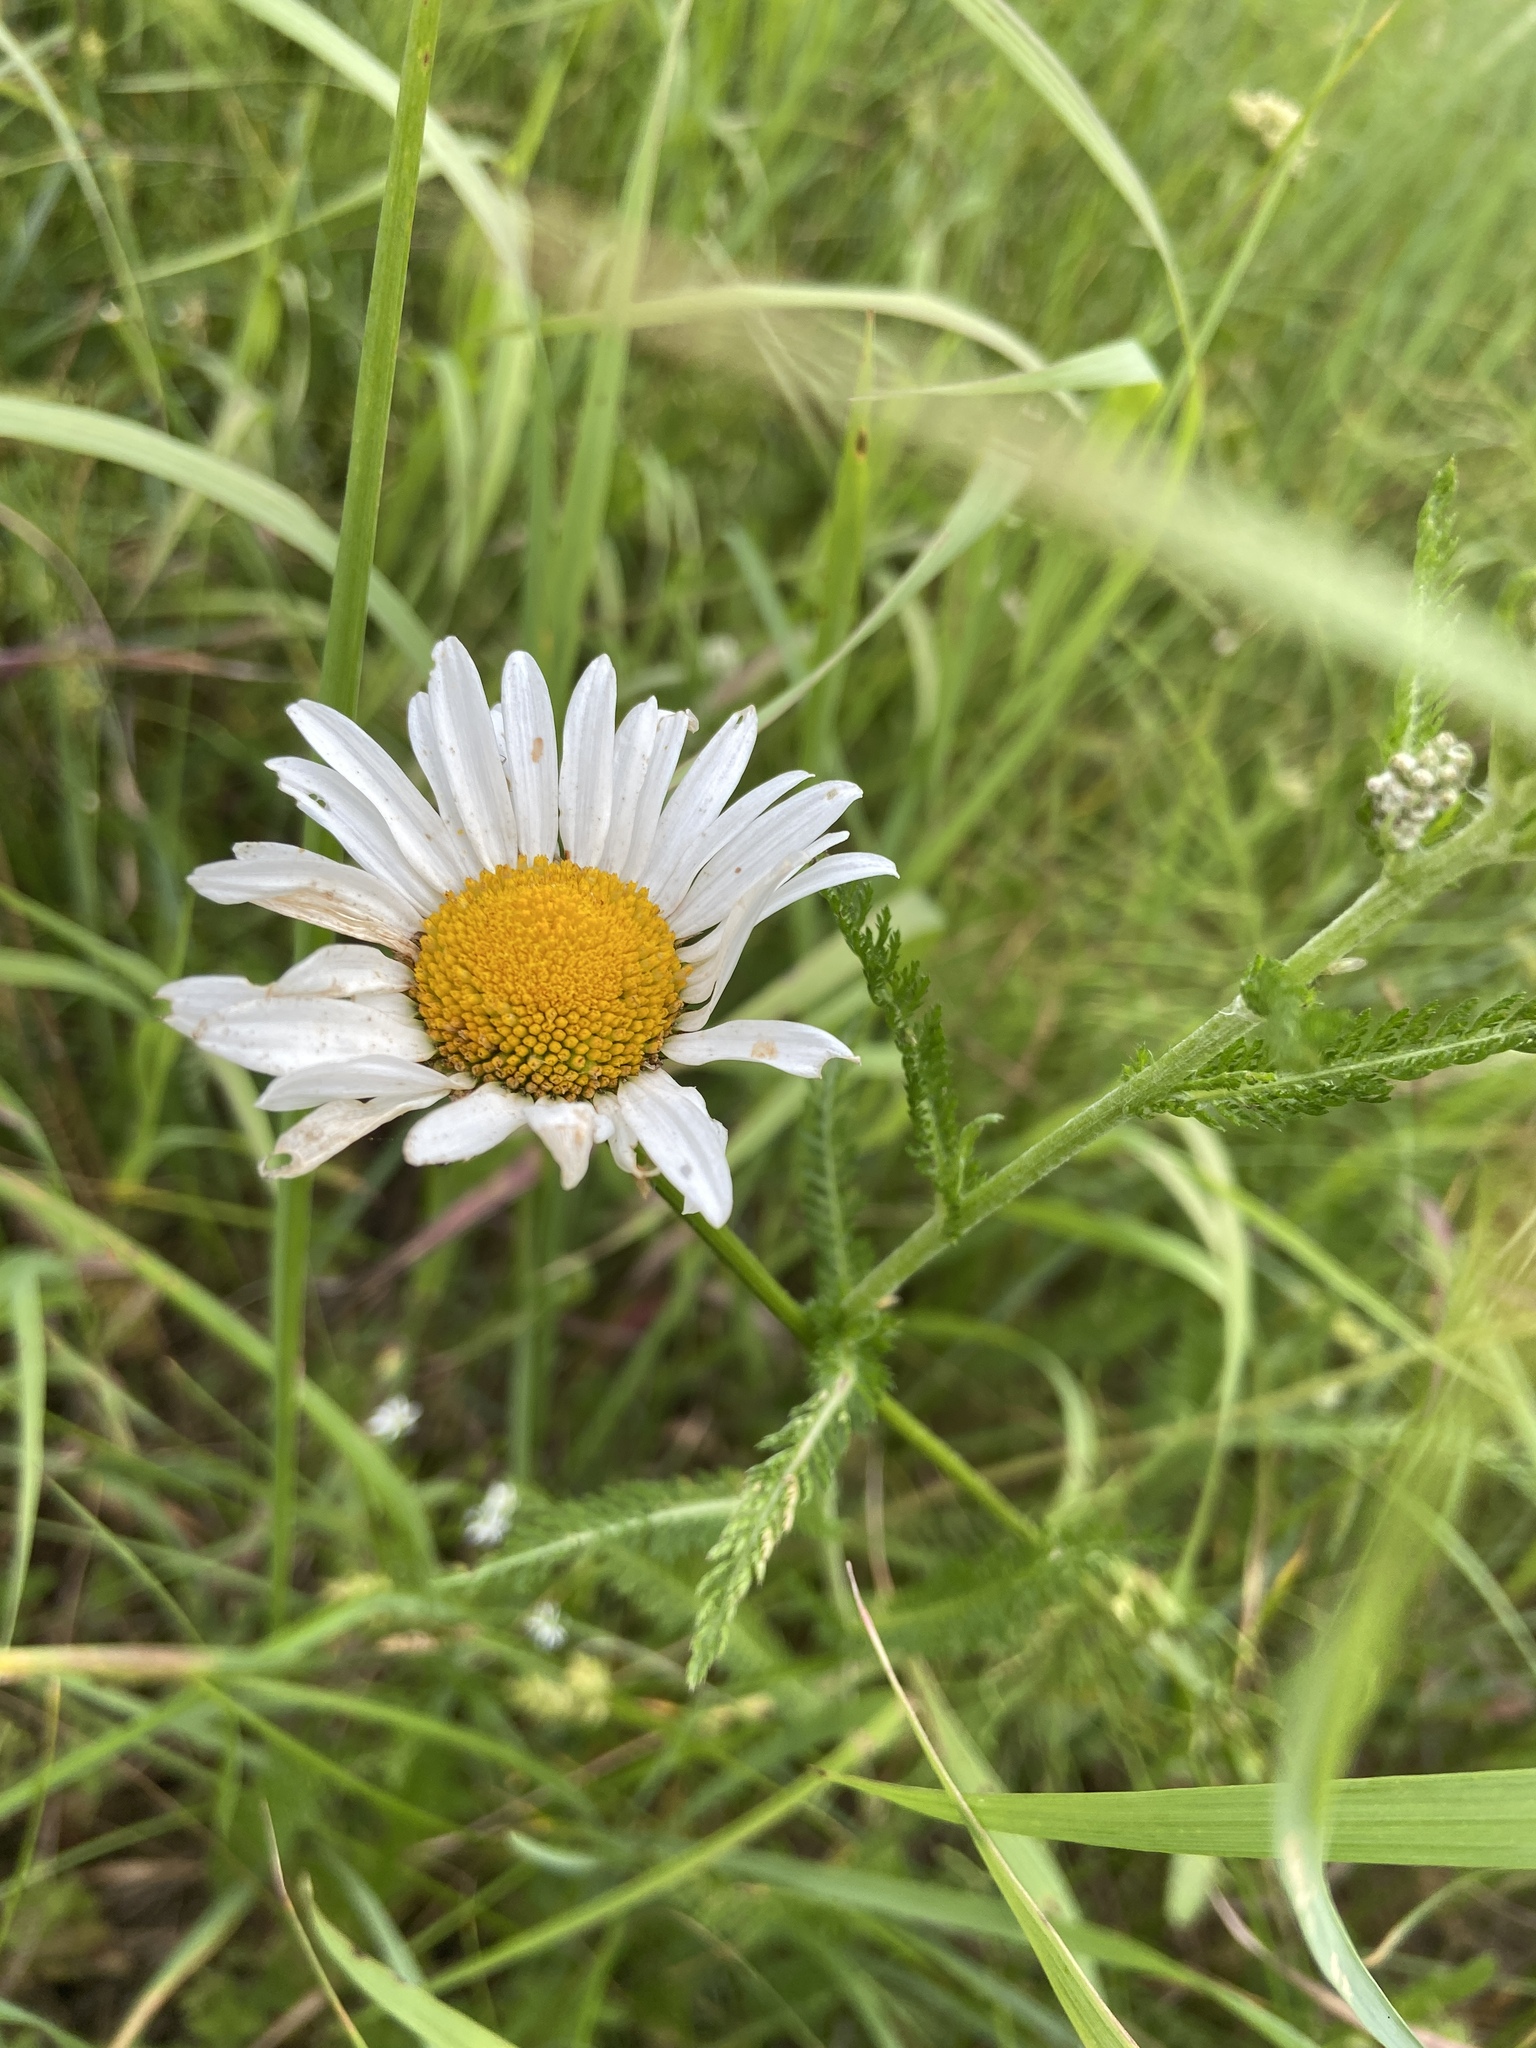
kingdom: Plantae
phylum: Tracheophyta
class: Magnoliopsida
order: Asterales
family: Asteraceae
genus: Leucanthemum
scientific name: Leucanthemum vulgare
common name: Oxeye daisy
